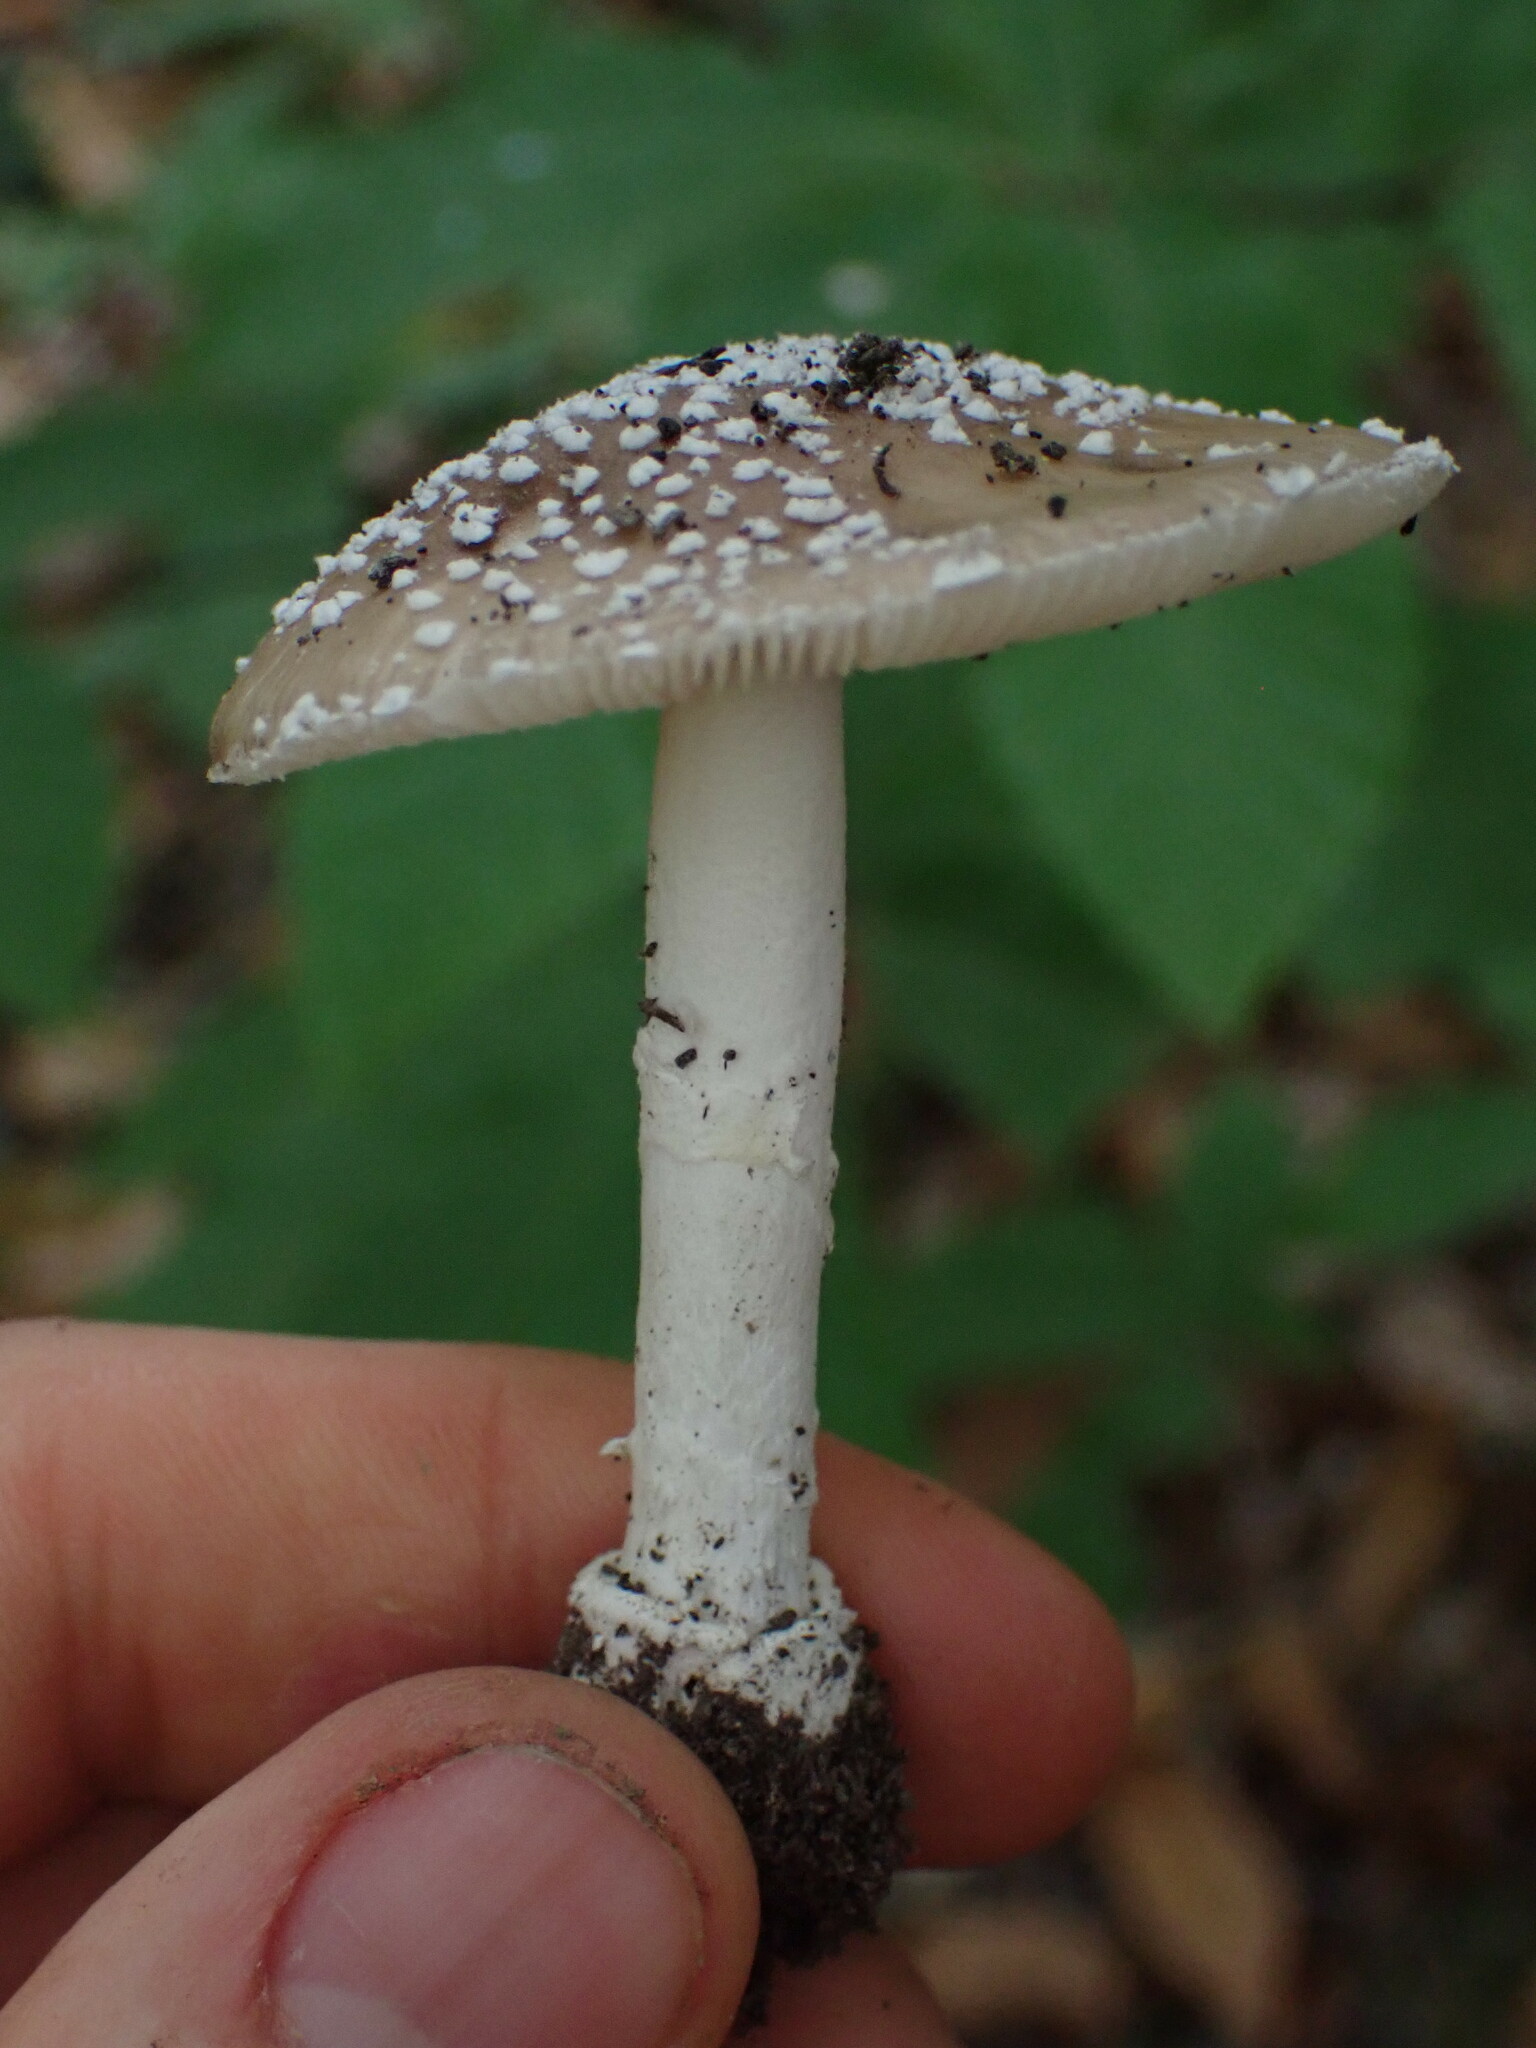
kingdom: Fungi
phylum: Basidiomycota
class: Agaricomycetes
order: Agaricales
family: Amanitaceae
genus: Amanita
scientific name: Amanita pantherina
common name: Panthercap
